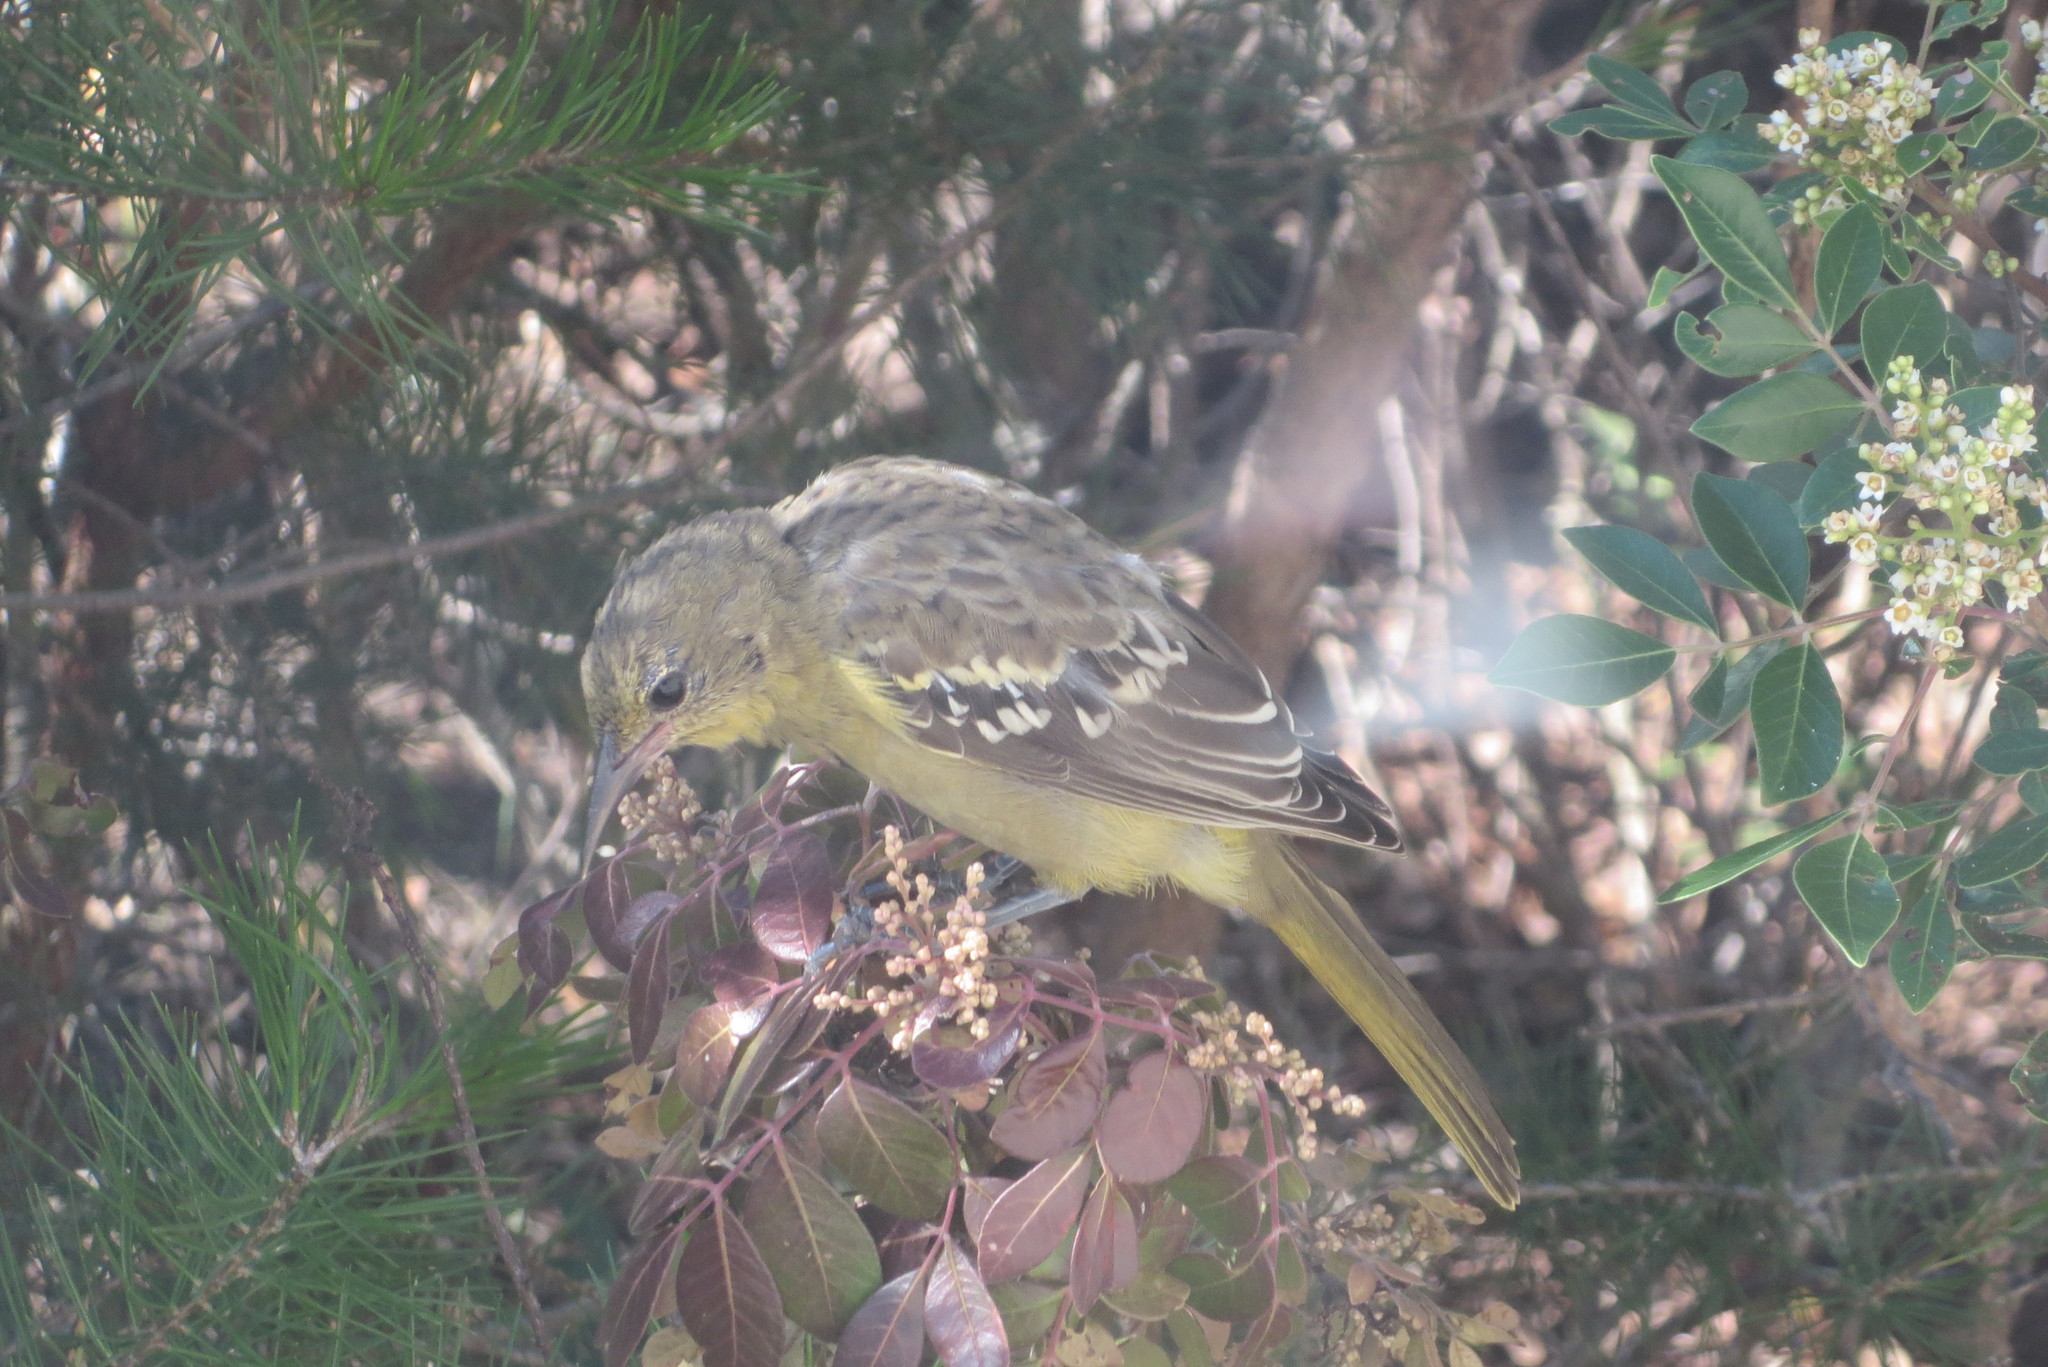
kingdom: Animalia
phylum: Chordata
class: Aves
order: Passeriformes
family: Icteridae
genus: Icterus
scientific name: Icterus parisorum
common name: Scott's oriole
